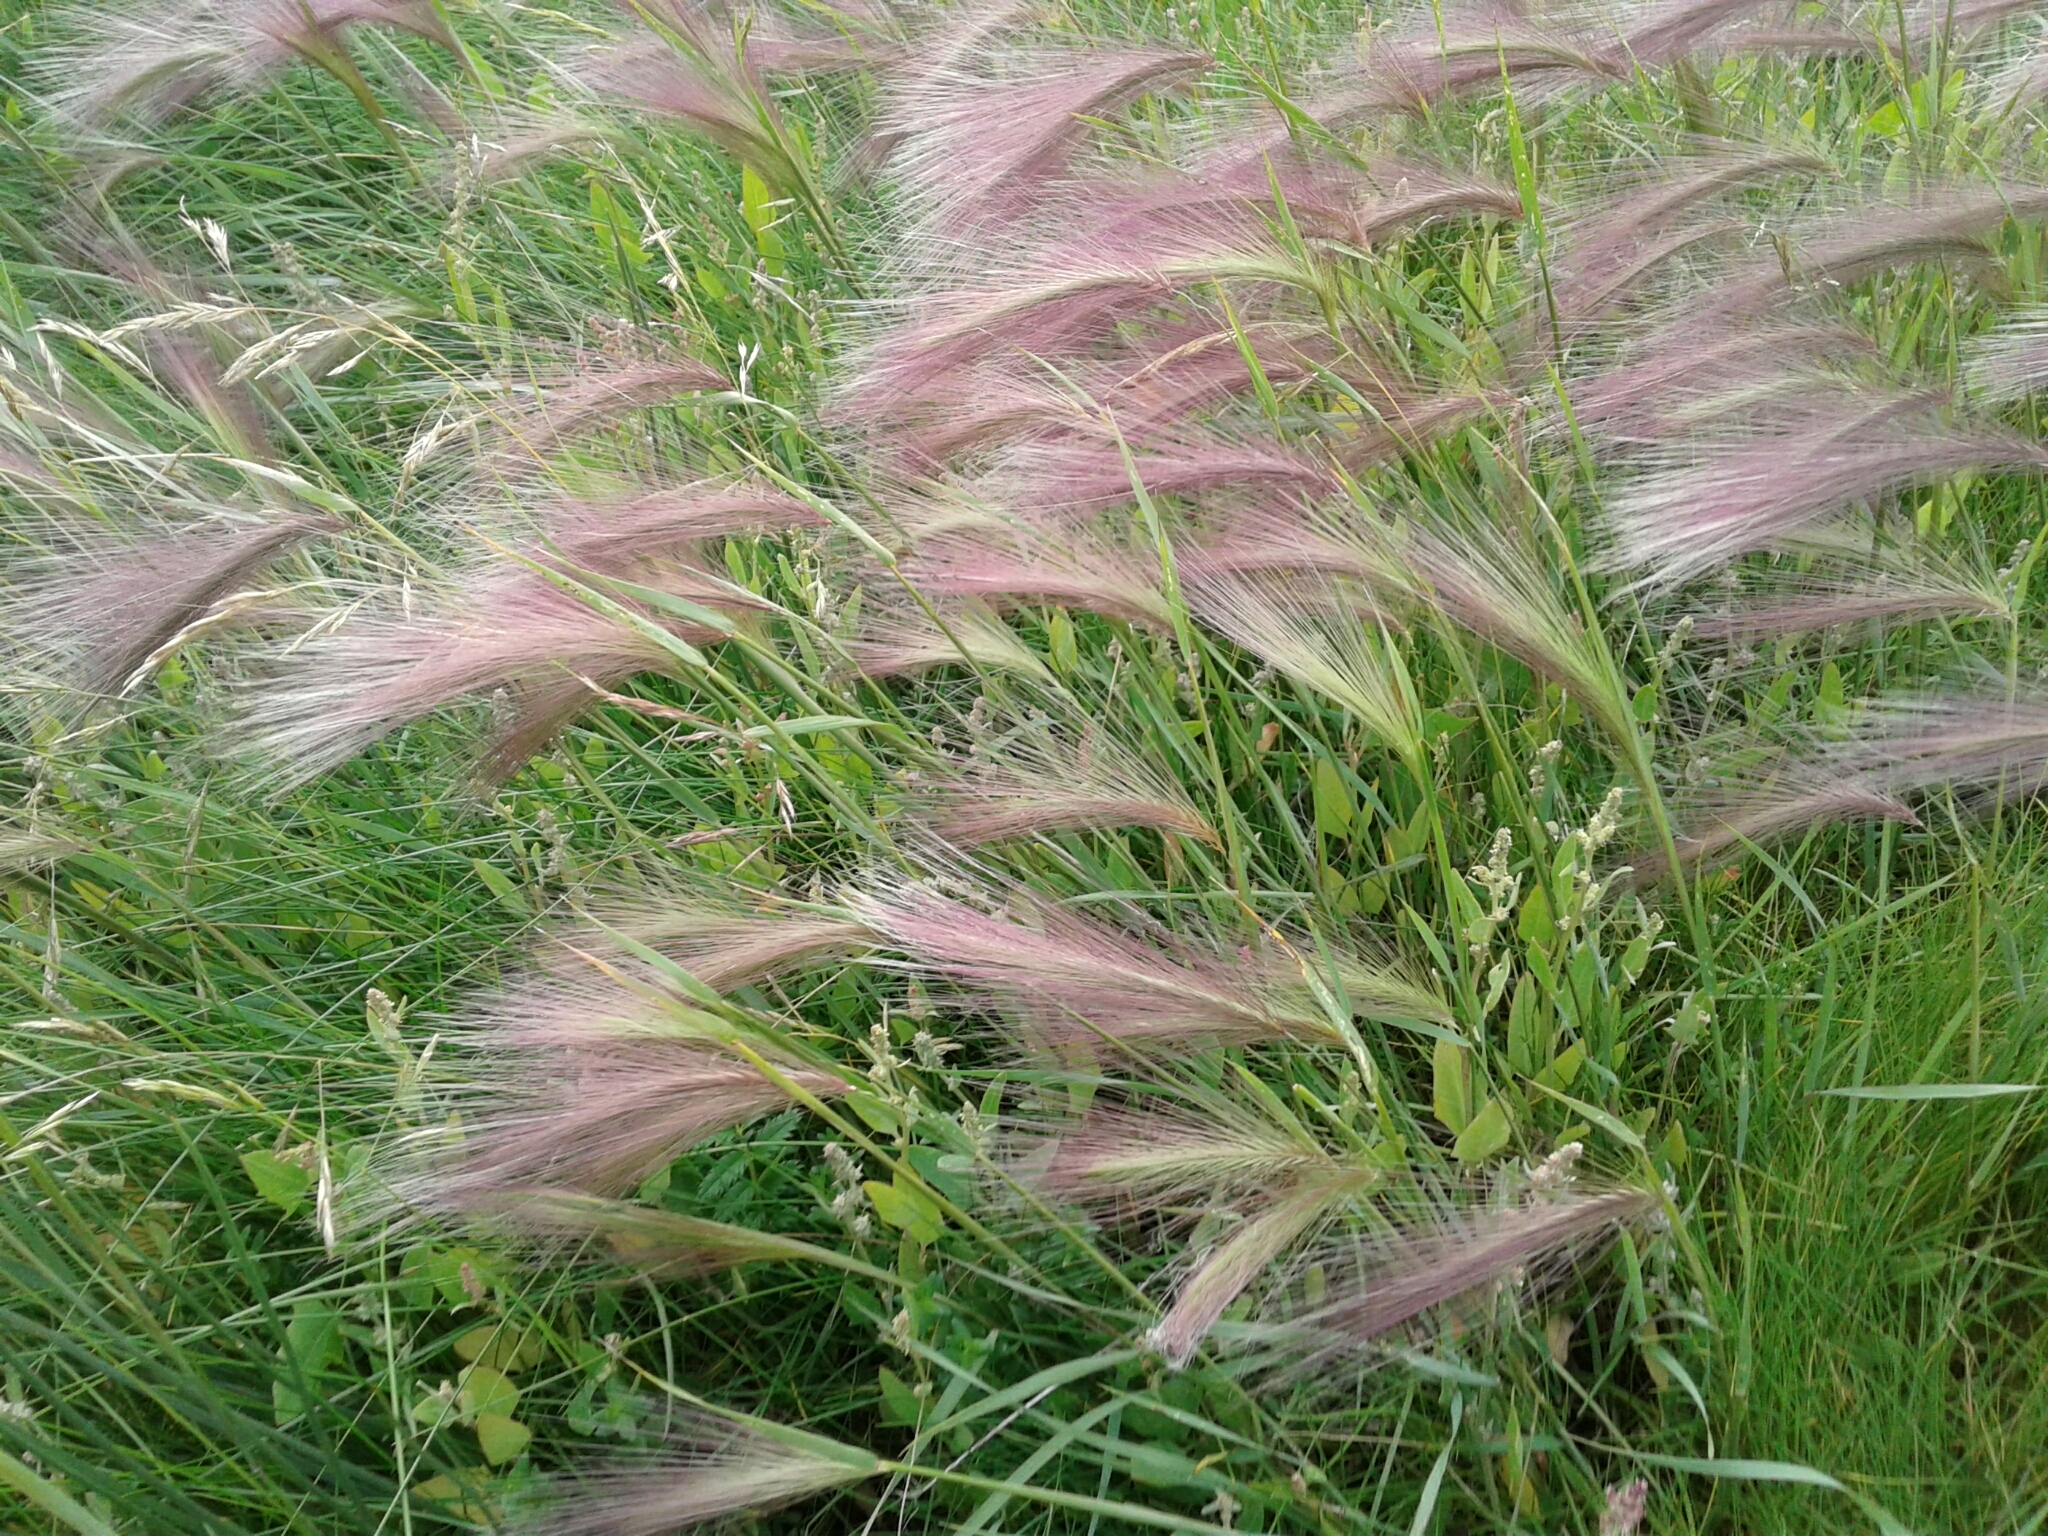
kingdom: Plantae
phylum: Tracheophyta
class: Liliopsida
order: Poales
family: Poaceae
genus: Hordeum
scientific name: Hordeum jubatum
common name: Foxtail barley
